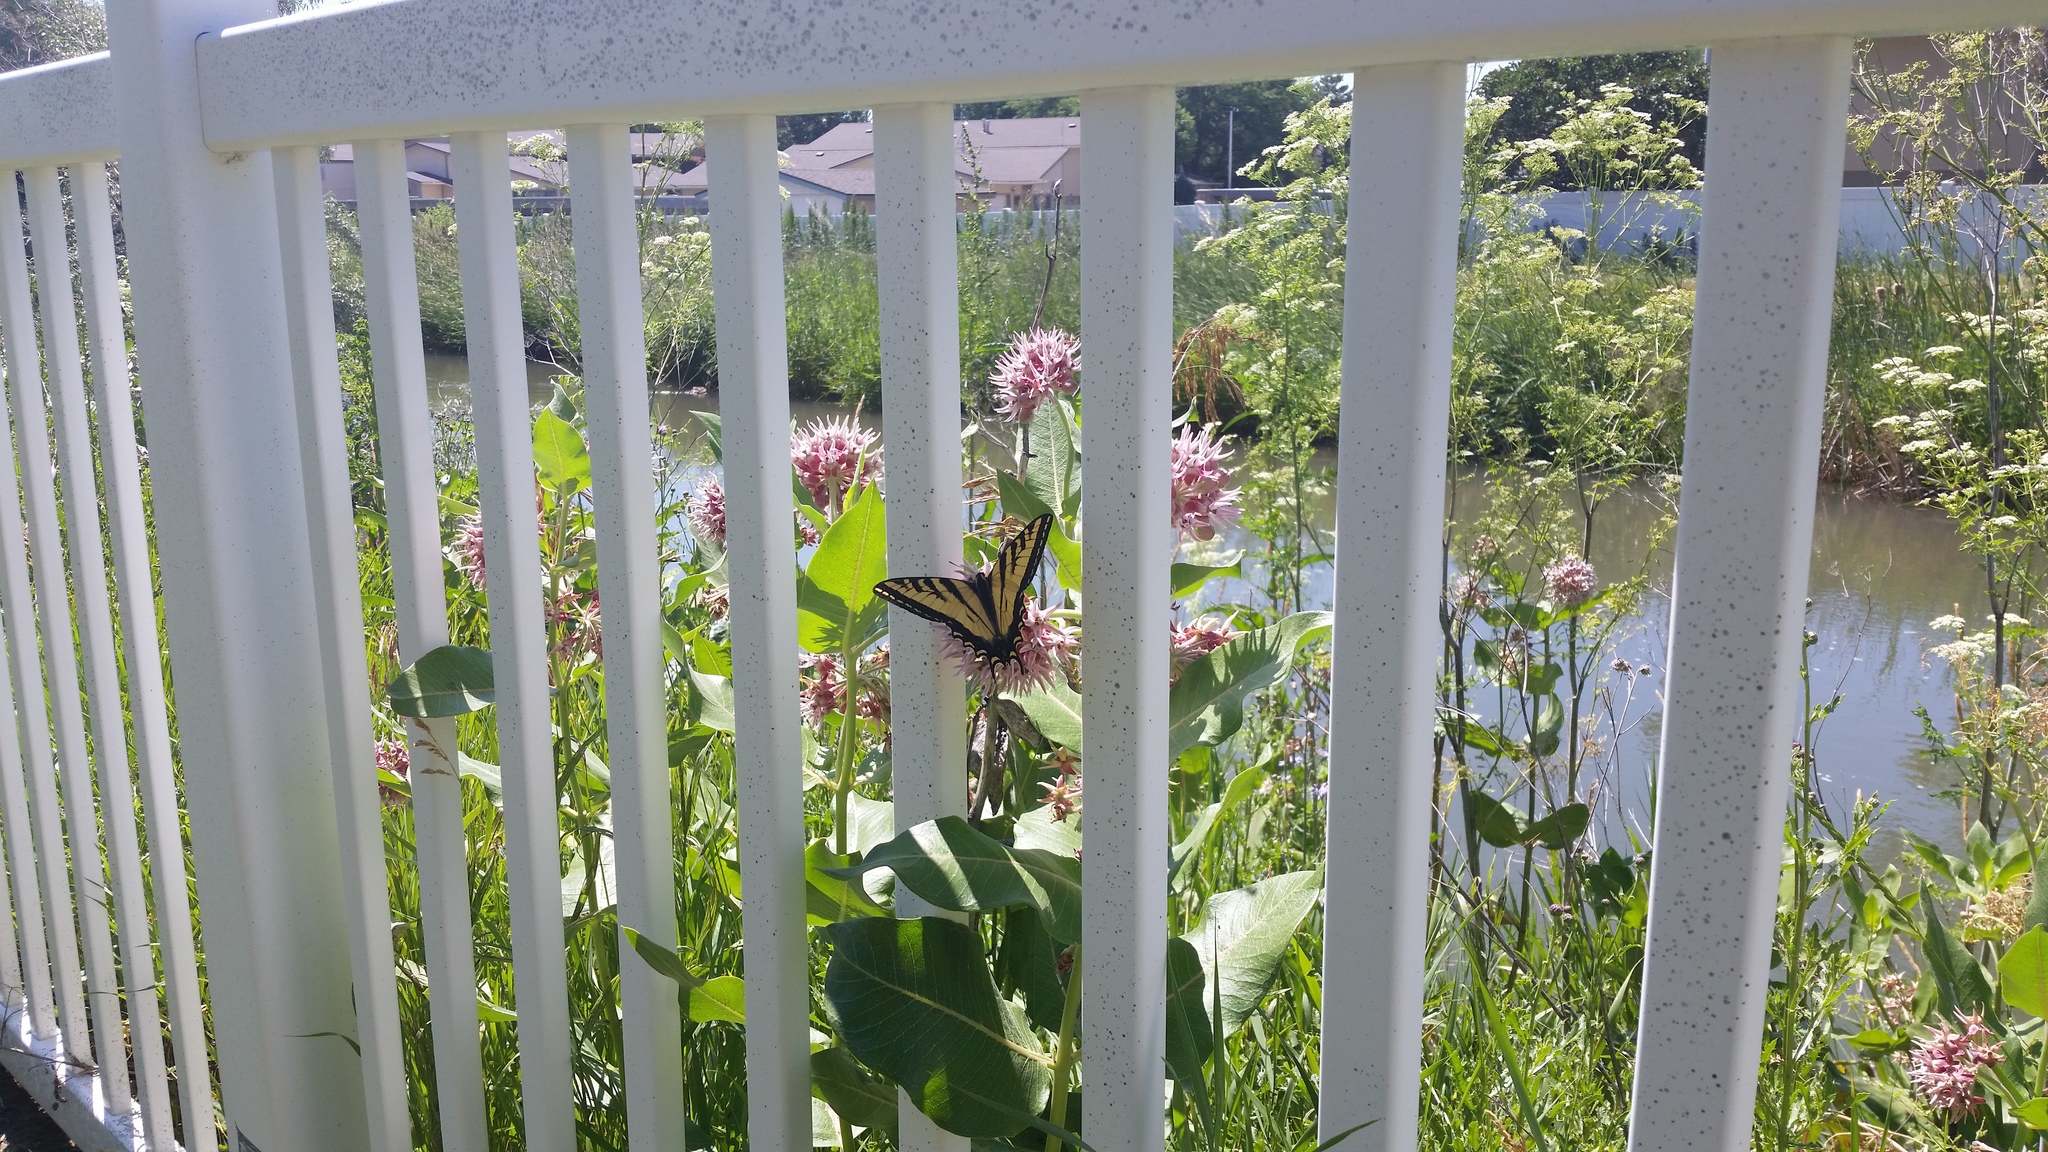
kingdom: Animalia
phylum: Arthropoda
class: Insecta
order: Lepidoptera
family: Papilionidae
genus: Papilio
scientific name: Papilio rutulus
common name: Western tiger swallowtail
